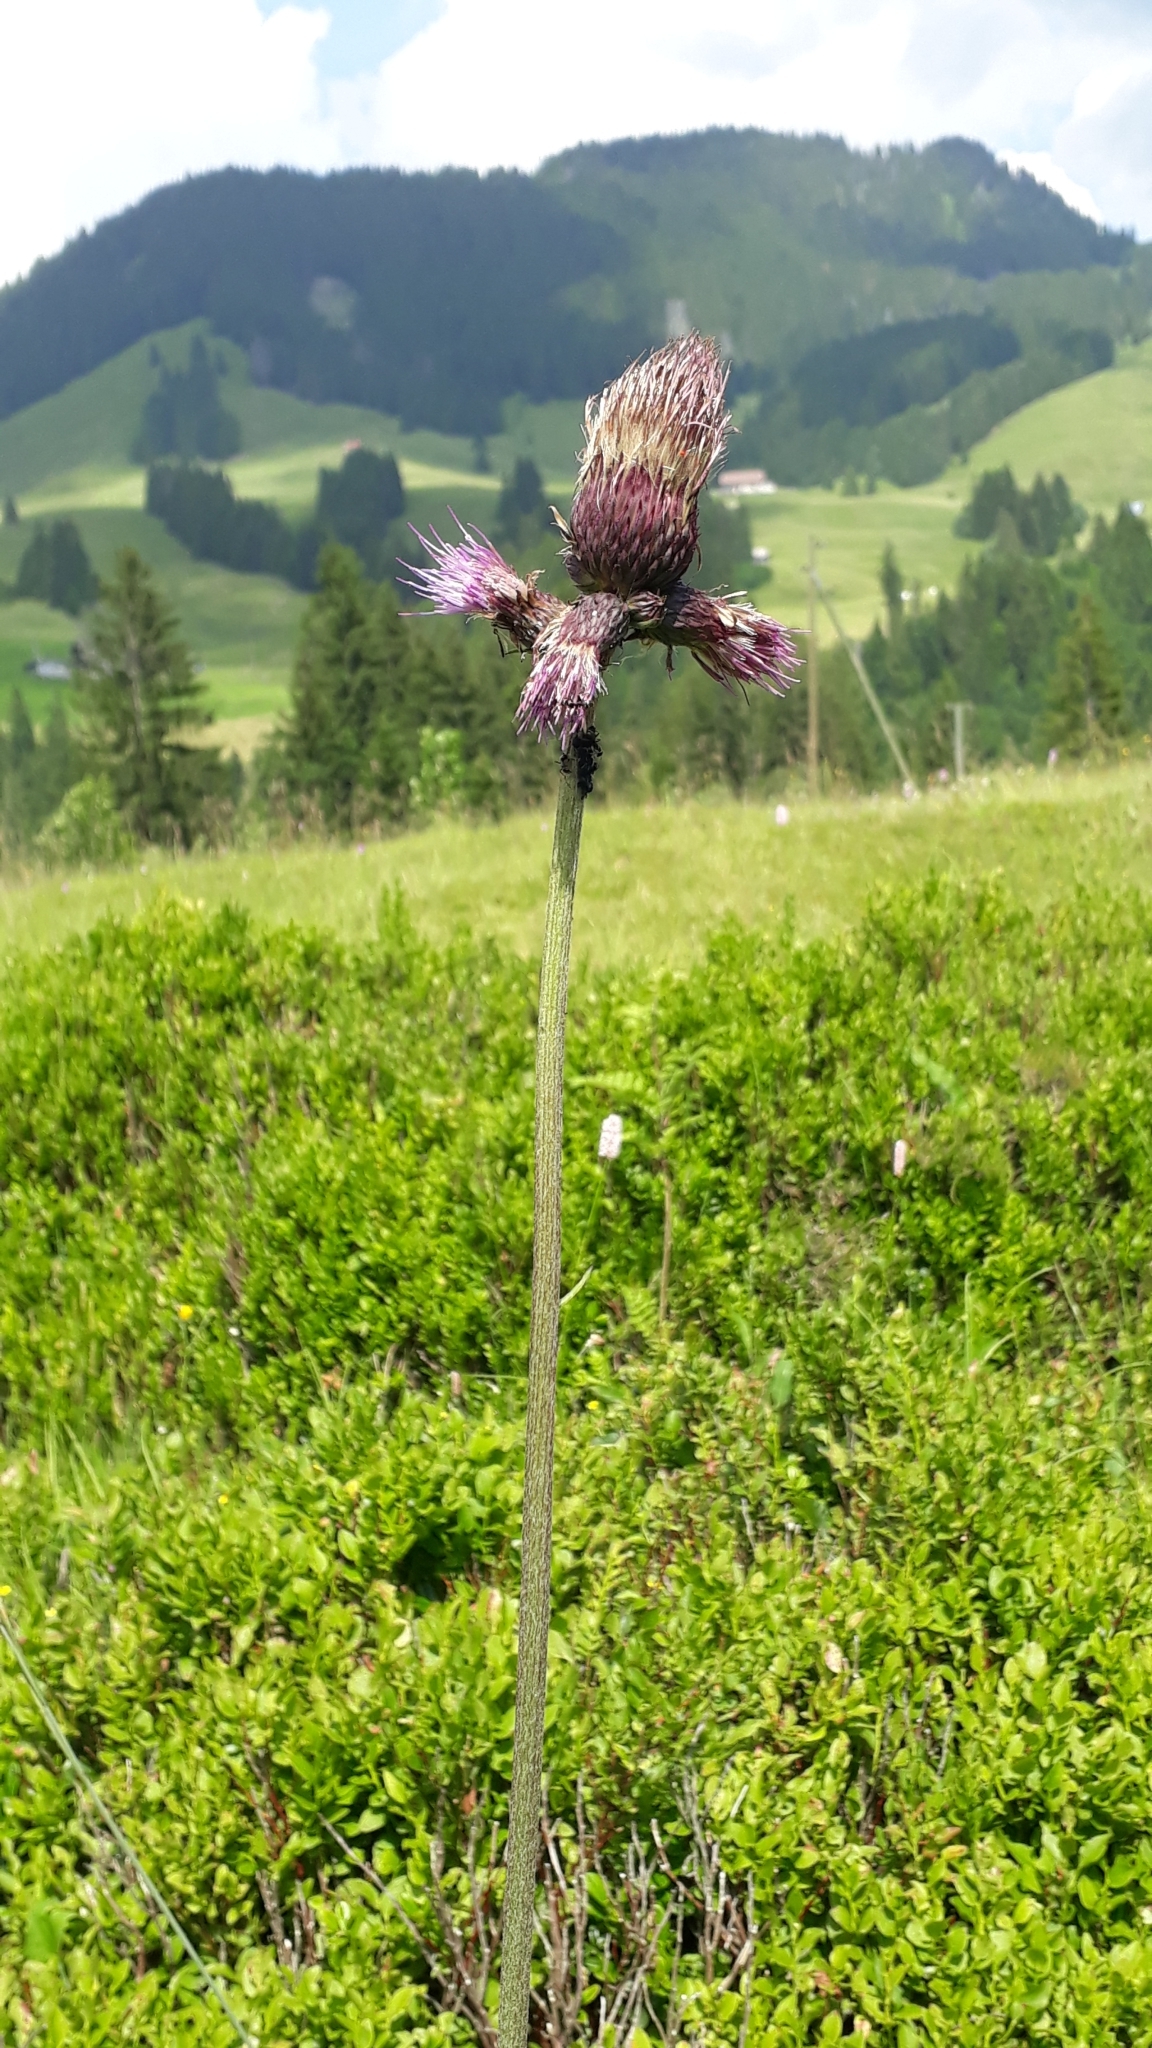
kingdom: Plantae
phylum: Tracheophyta
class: Magnoliopsida
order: Asterales
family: Asteraceae
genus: Cirsium
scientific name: Cirsium rivulare
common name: Brook thistle
